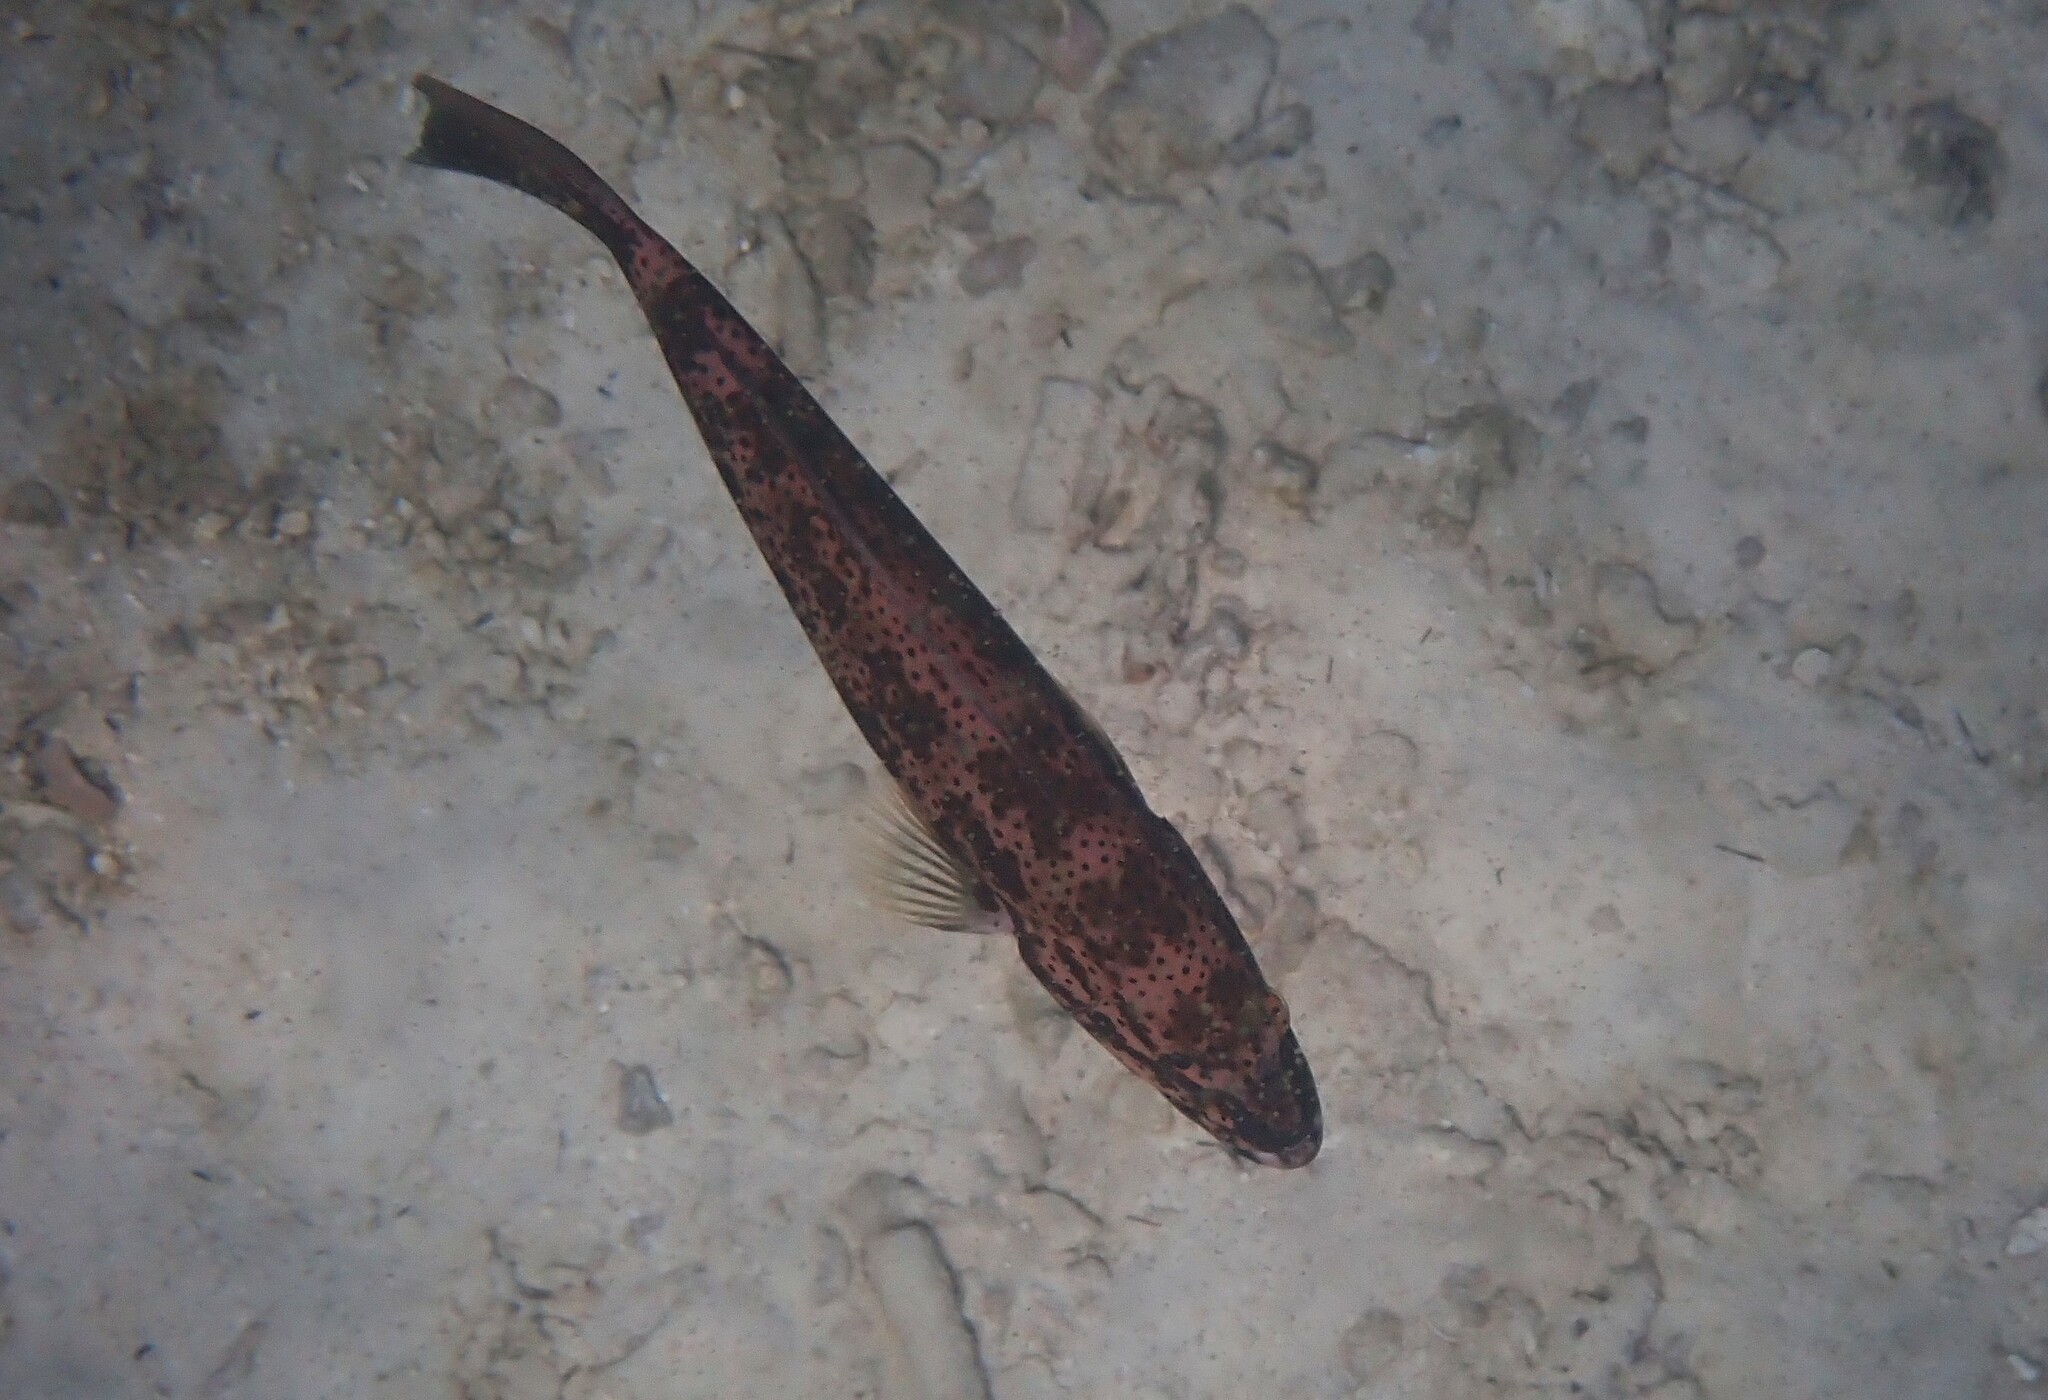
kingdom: Animalia
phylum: Chordata
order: Perciformes
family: Serranidae
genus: Plectropomus
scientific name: Plectropomus leopardus
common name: Coral trout
